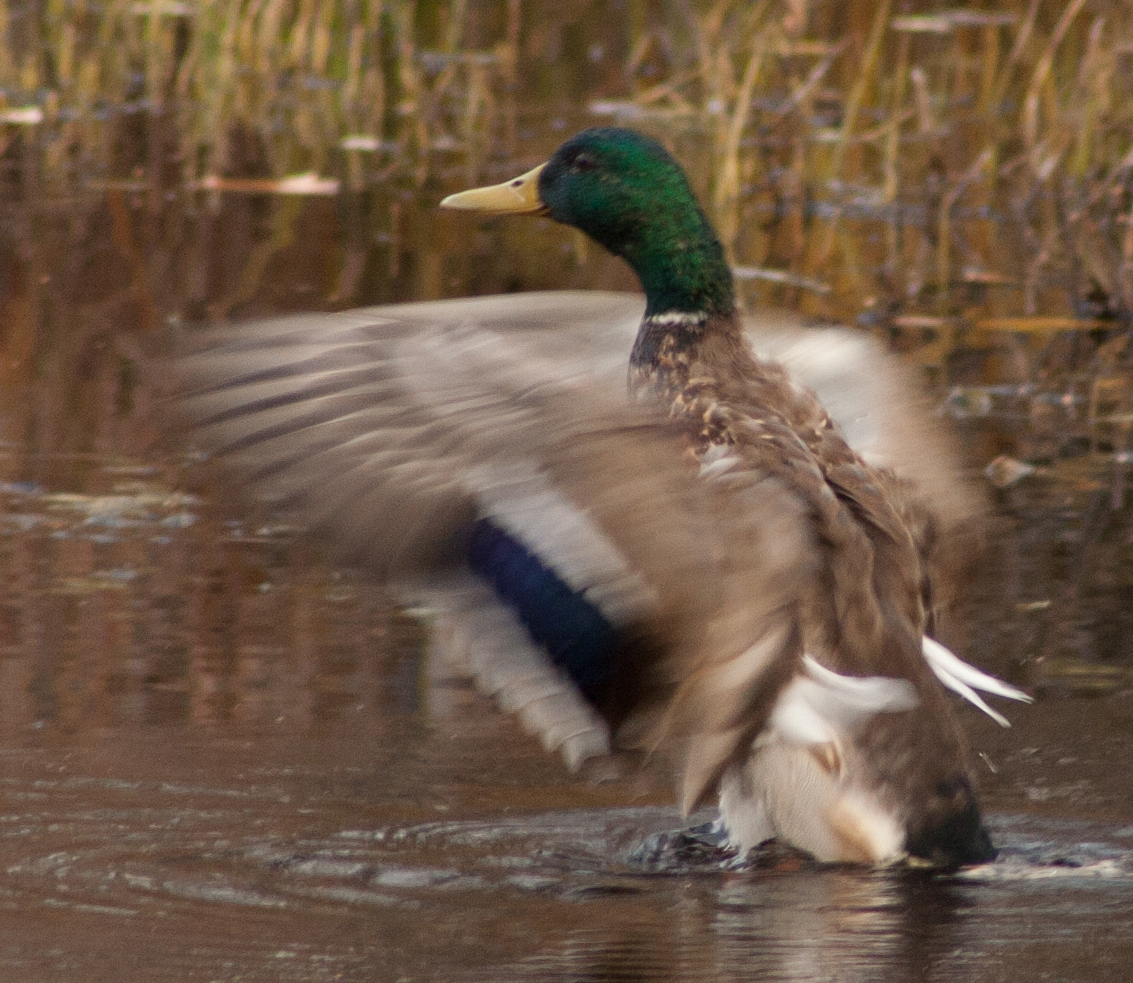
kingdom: Animalia
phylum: Chordata
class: Aves
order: Anseriformes
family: Anatidae
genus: Anas
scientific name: Anas platyrhynchos
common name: Mallard
